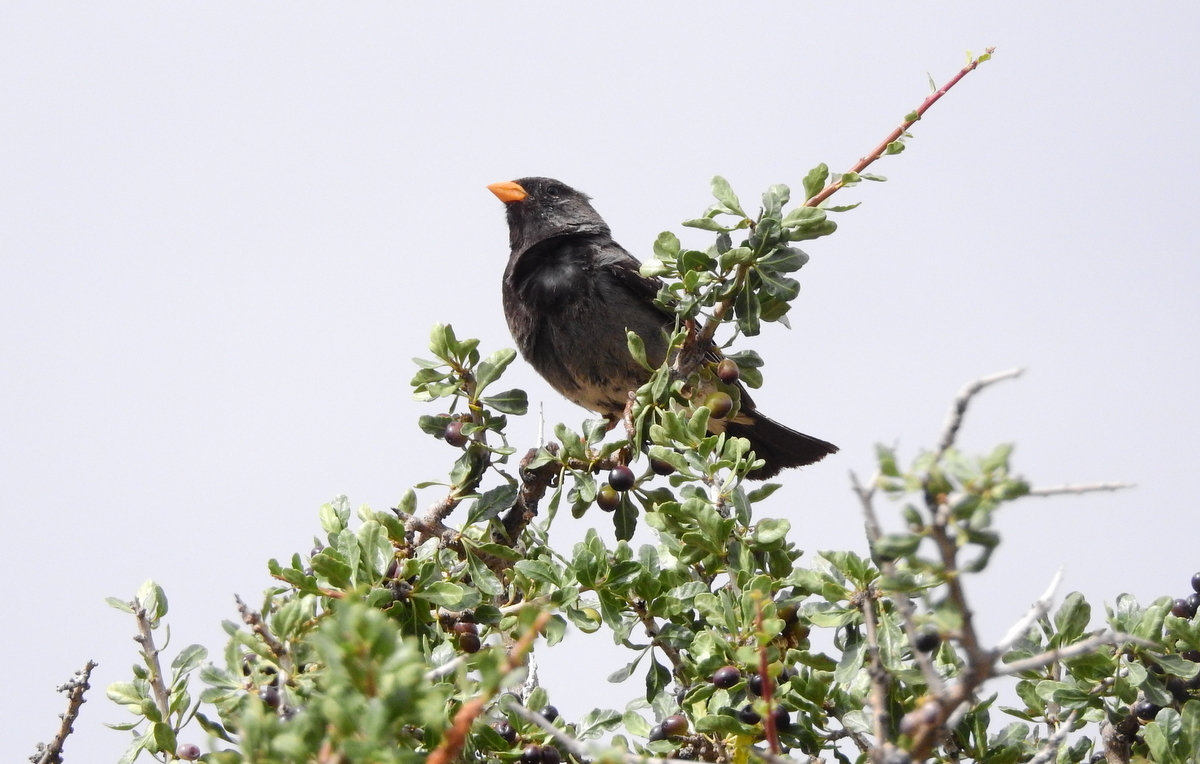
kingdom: Animalia
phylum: Chordata
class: Aves
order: Passeriformes
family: Thraupidae
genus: Rhopospina
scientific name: Rhopospina fruticeti
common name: Mourning sierra finch
